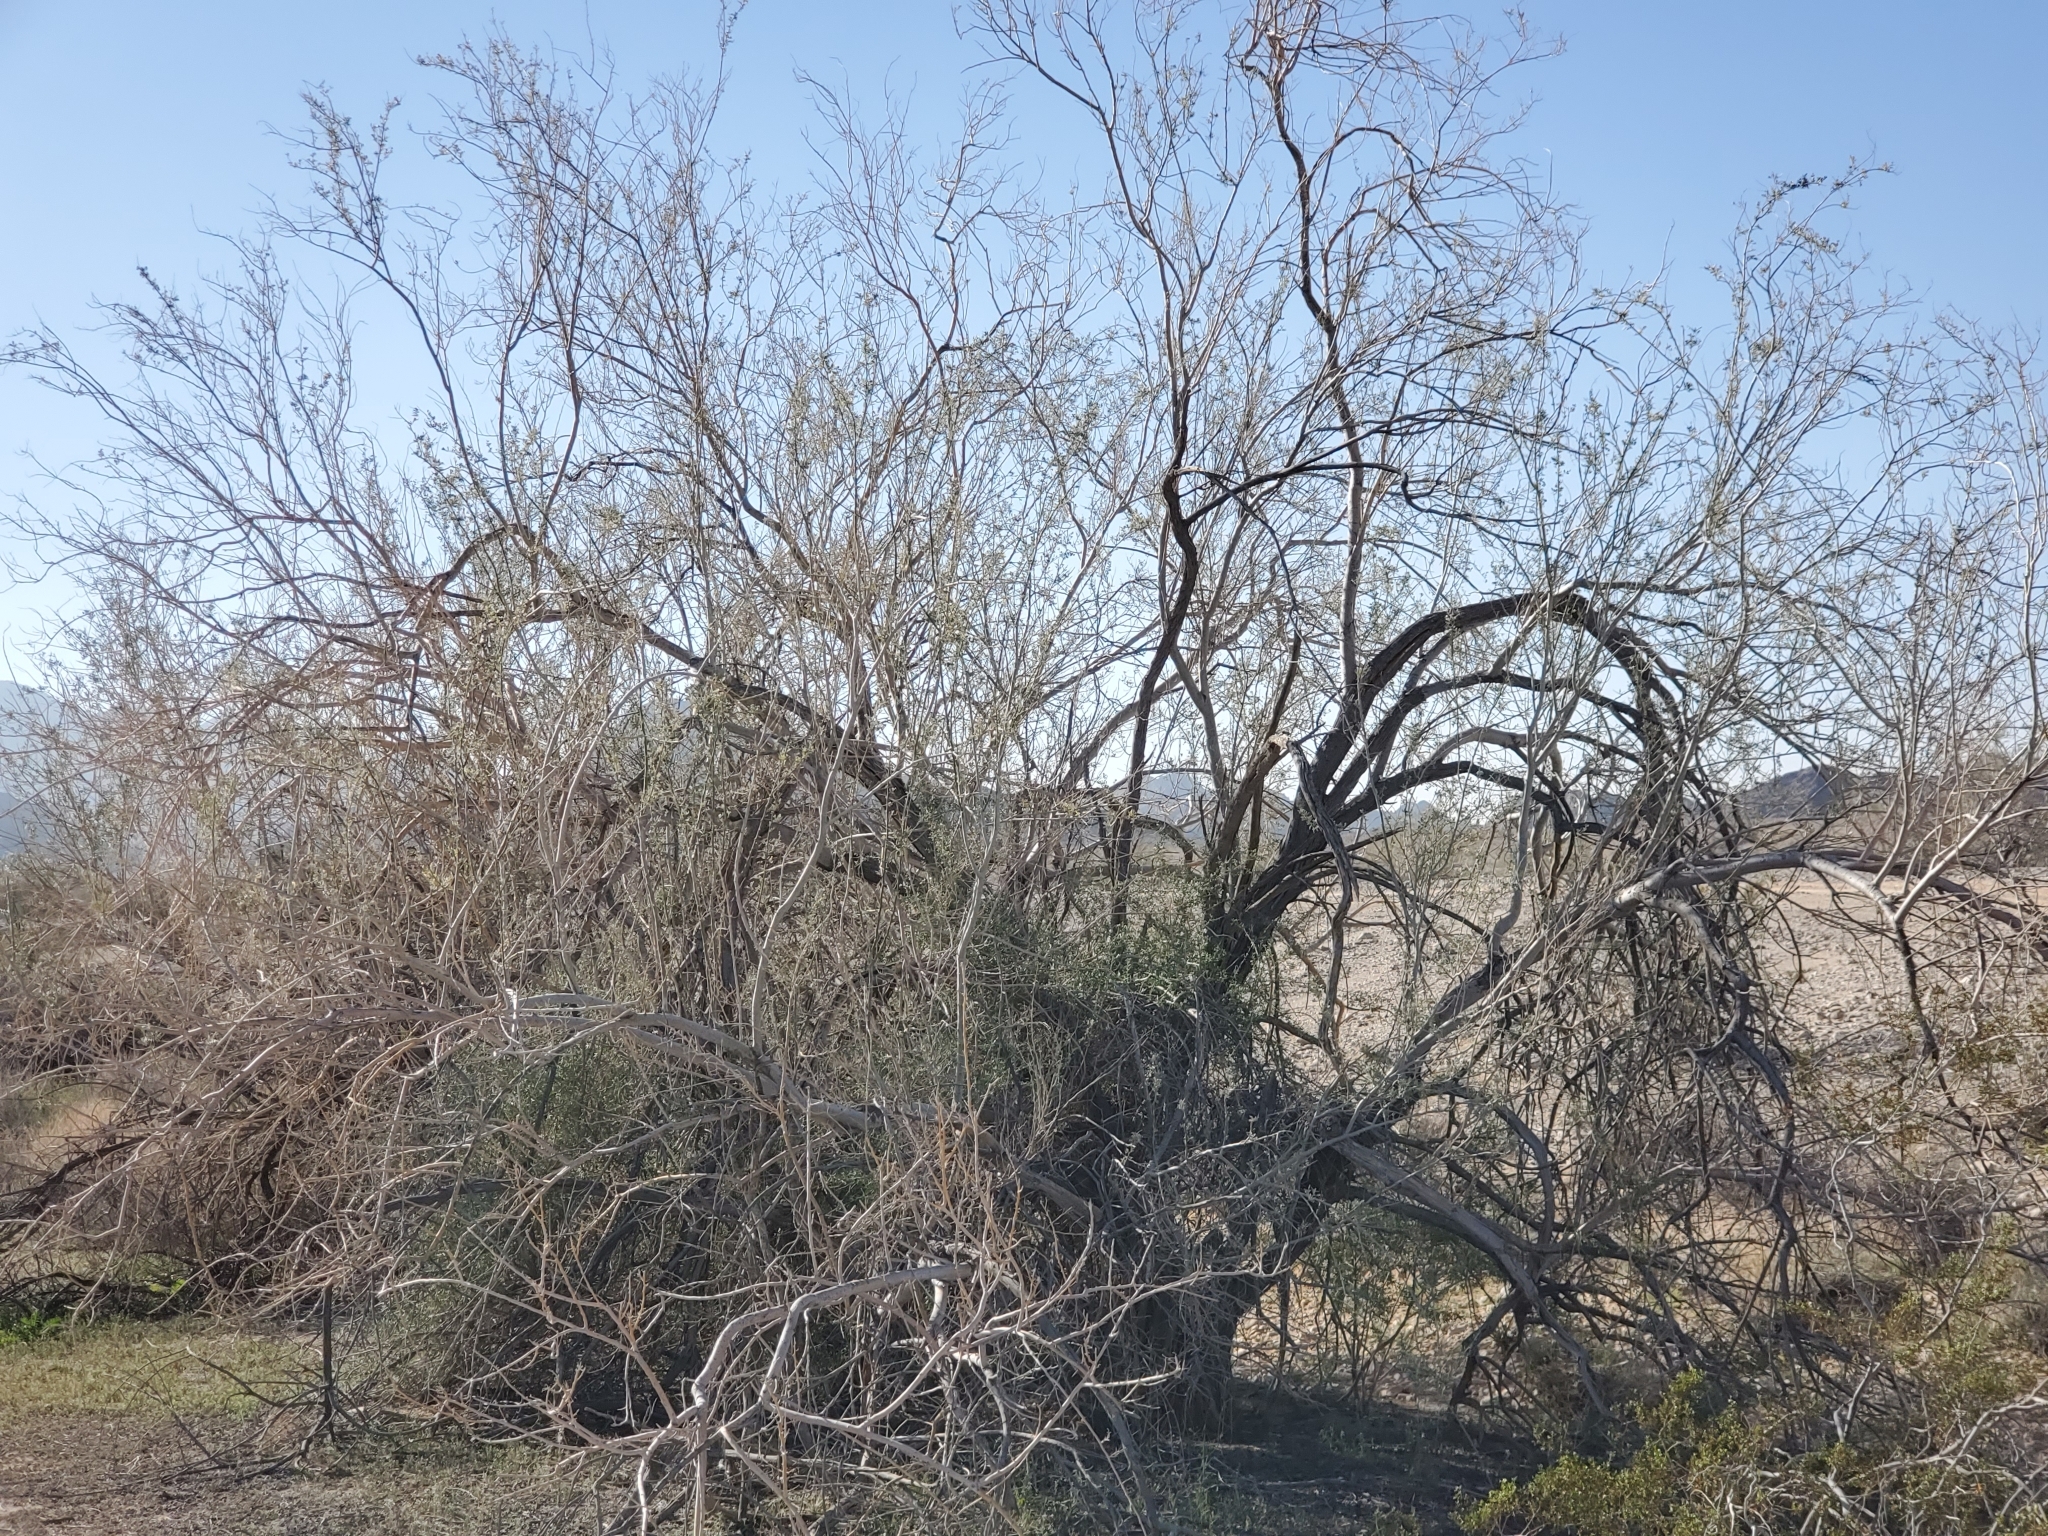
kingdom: Plantae
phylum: Tracheophyta
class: Magnoliopsida
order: Fabales
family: Fabaceae
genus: Olneya
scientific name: Olneya tesota
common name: Desert ironwood
